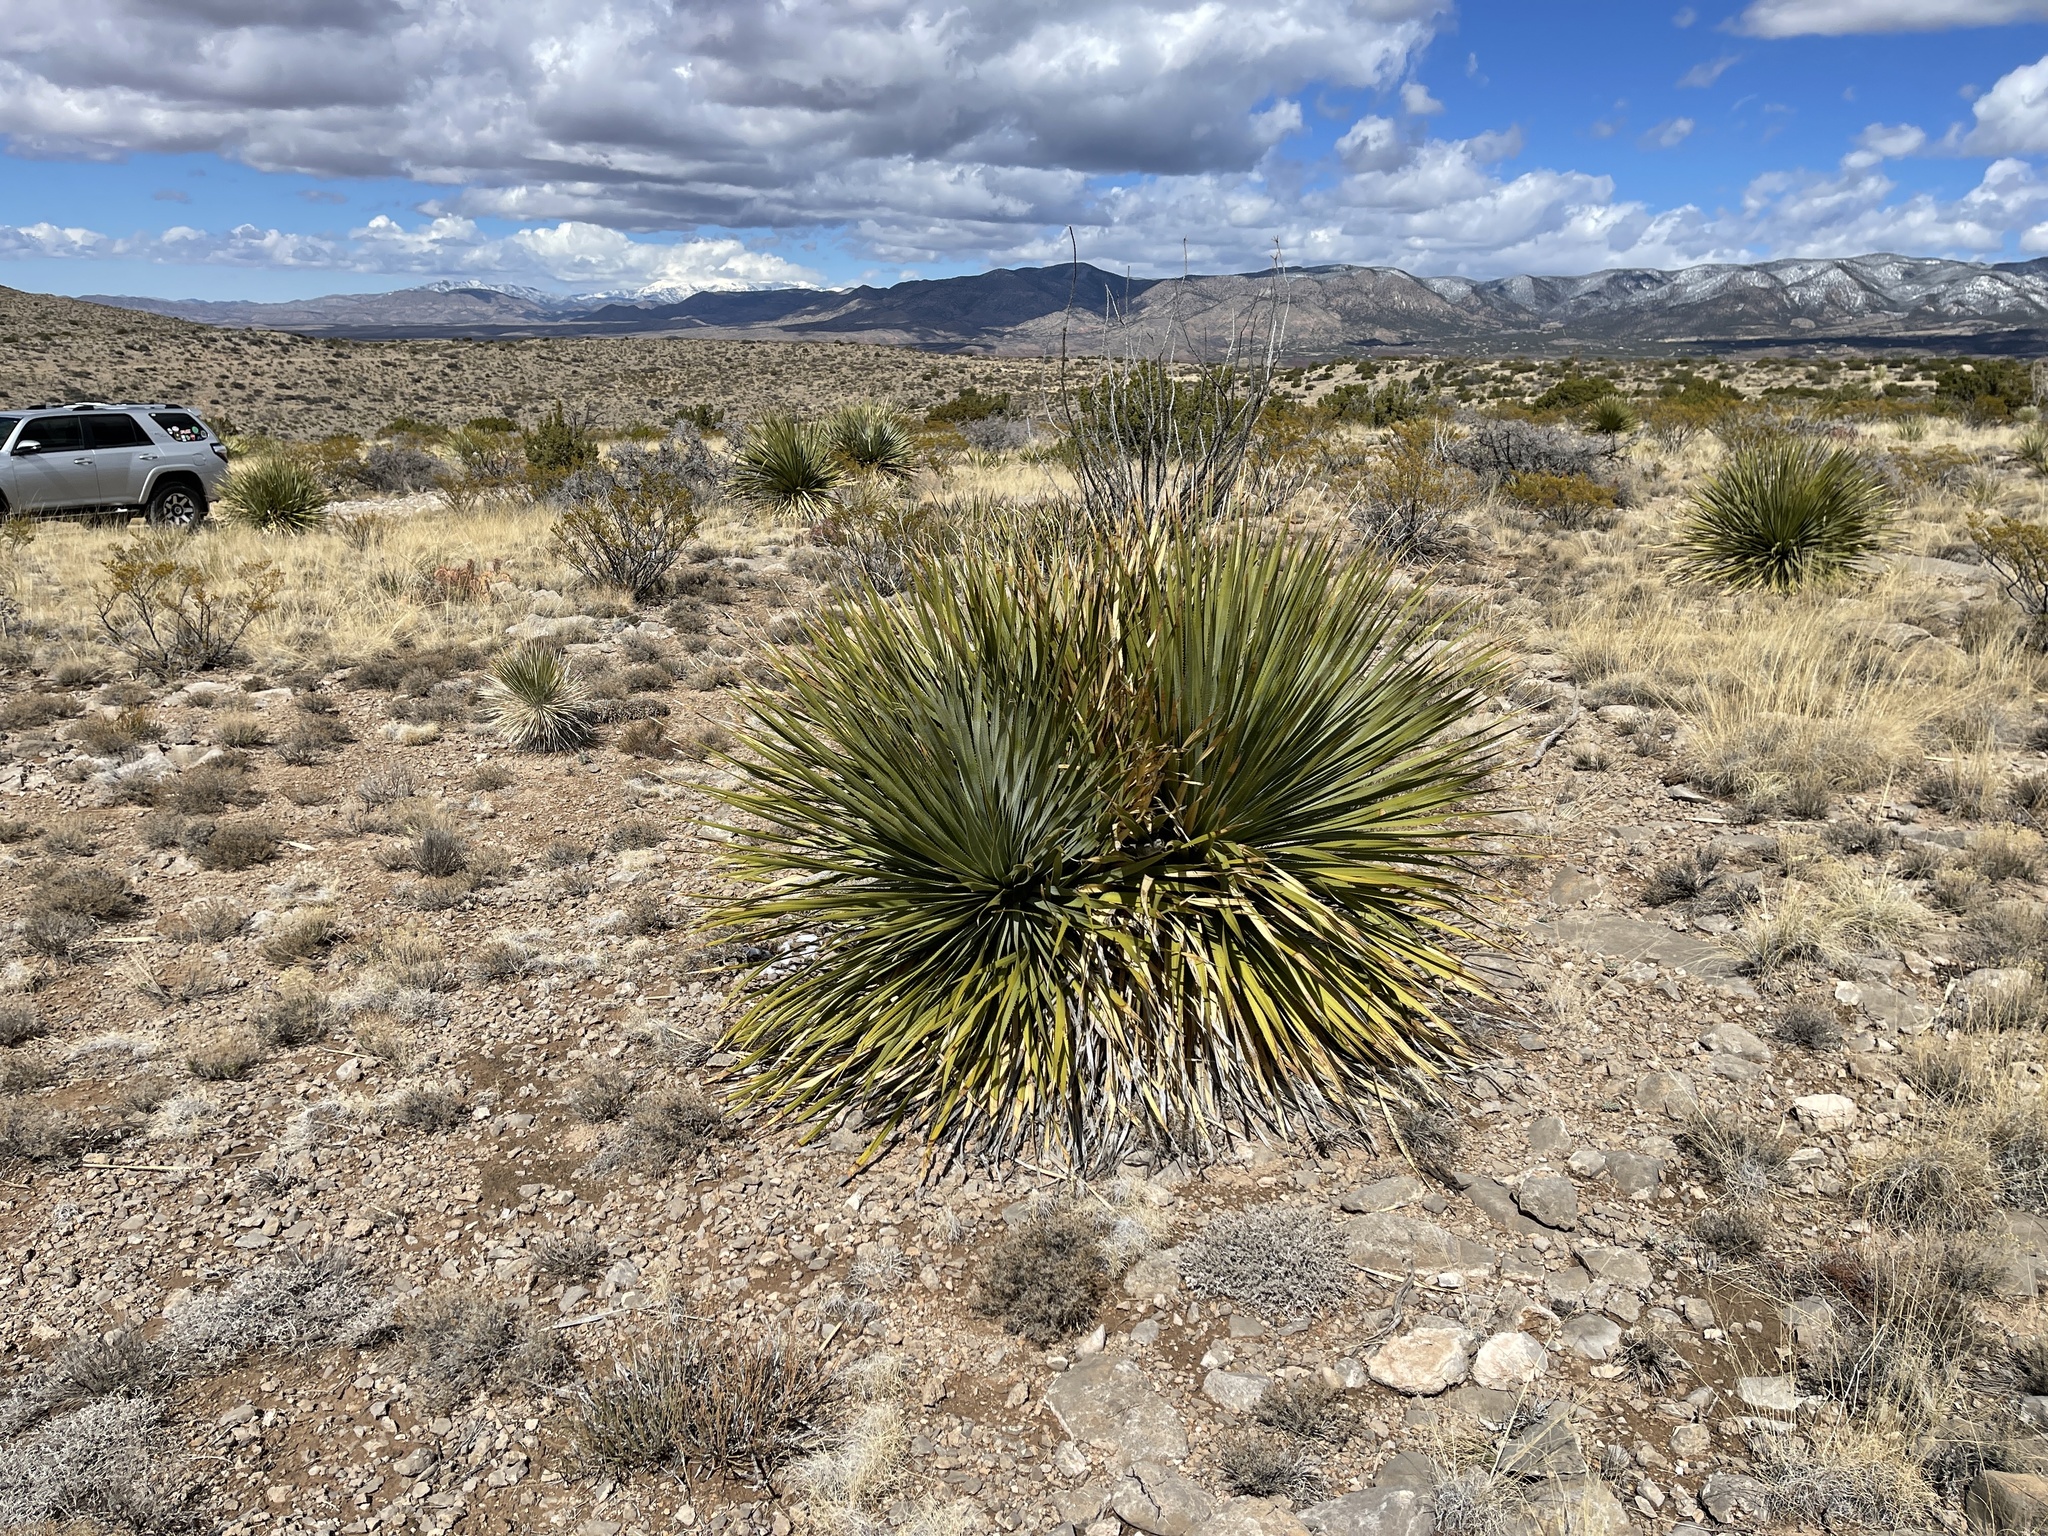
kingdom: Plantae
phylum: Tracheophyta
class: Liliopsida
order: Asparagales
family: Asparagaceae
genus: Dasylirion
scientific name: Dasylirion wheeleri
